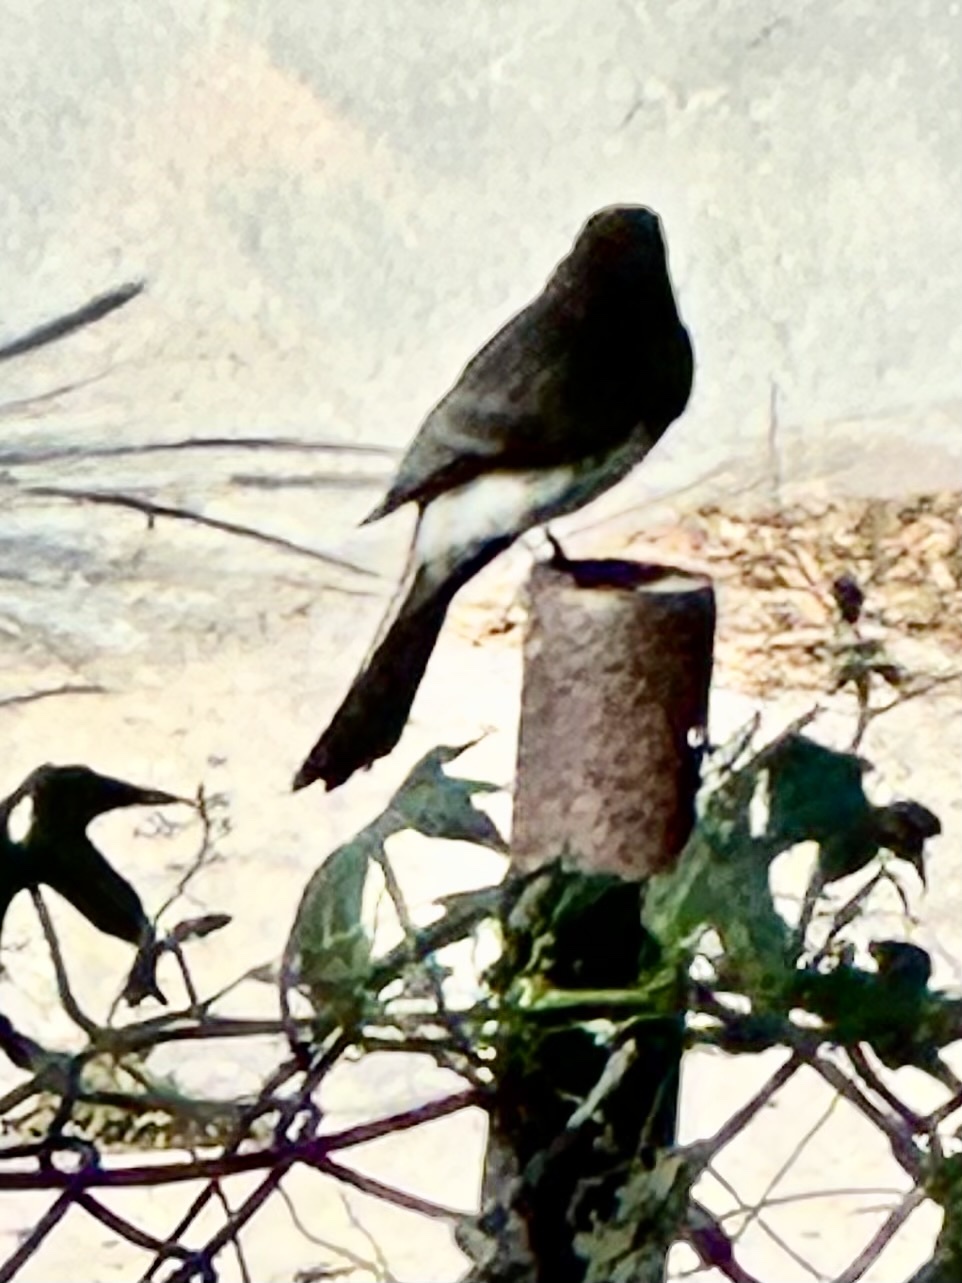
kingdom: Animalia
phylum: Chordata
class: Aves
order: Passeriformes
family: Tyrannidae
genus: Sayornis
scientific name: Sayornis nigricans
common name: Black phoebe
